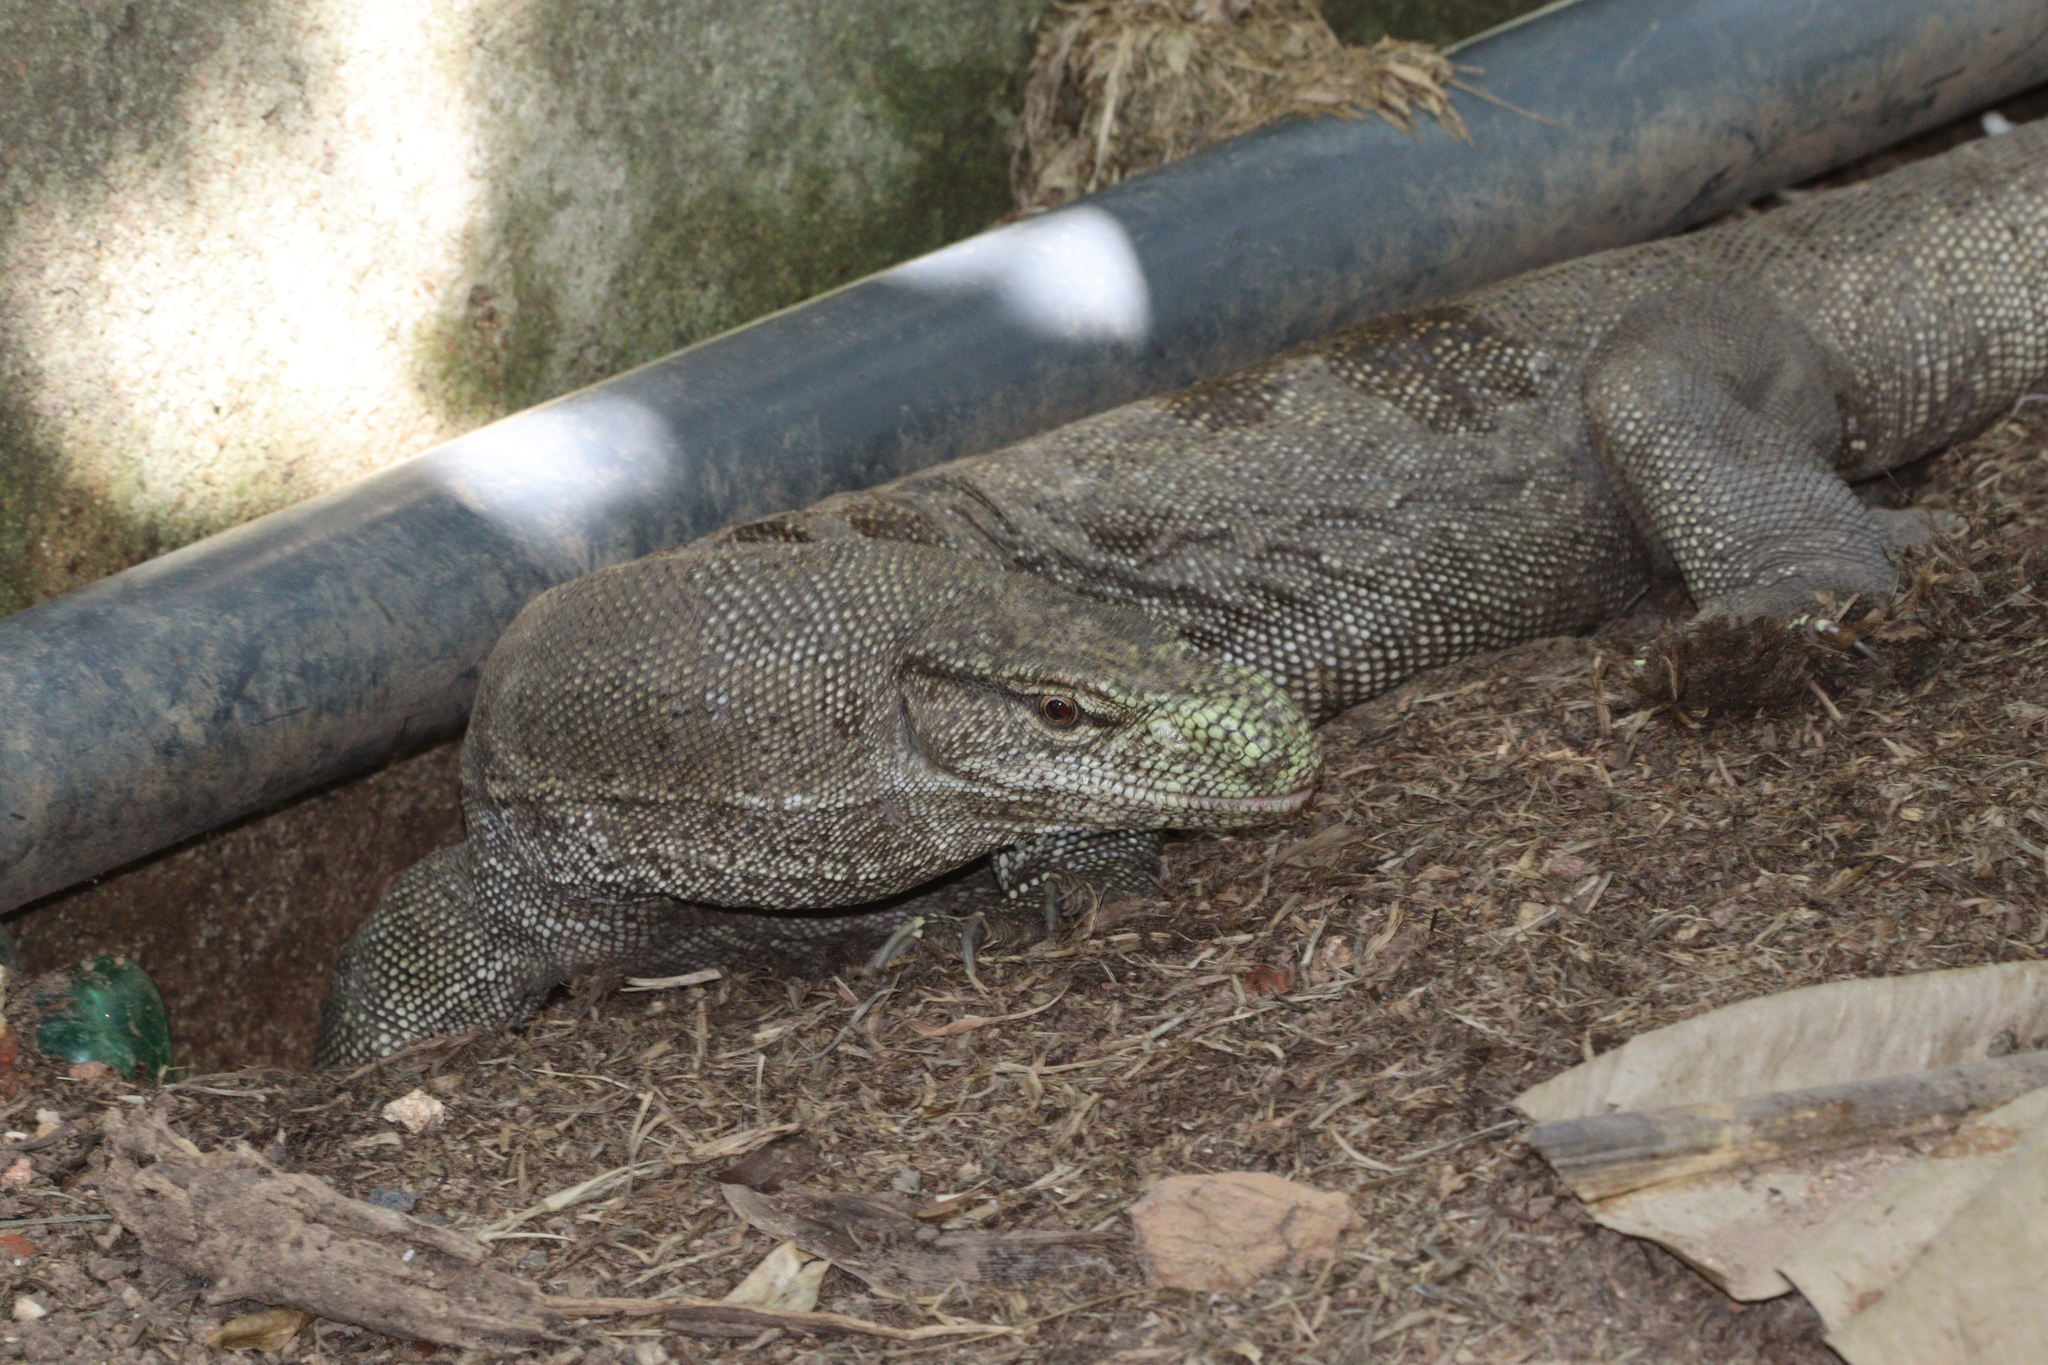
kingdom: Animalia
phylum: Chordata
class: Squamata
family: Varanidae
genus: Varanus
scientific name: Varanus bengalensis
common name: Bengal monitor
